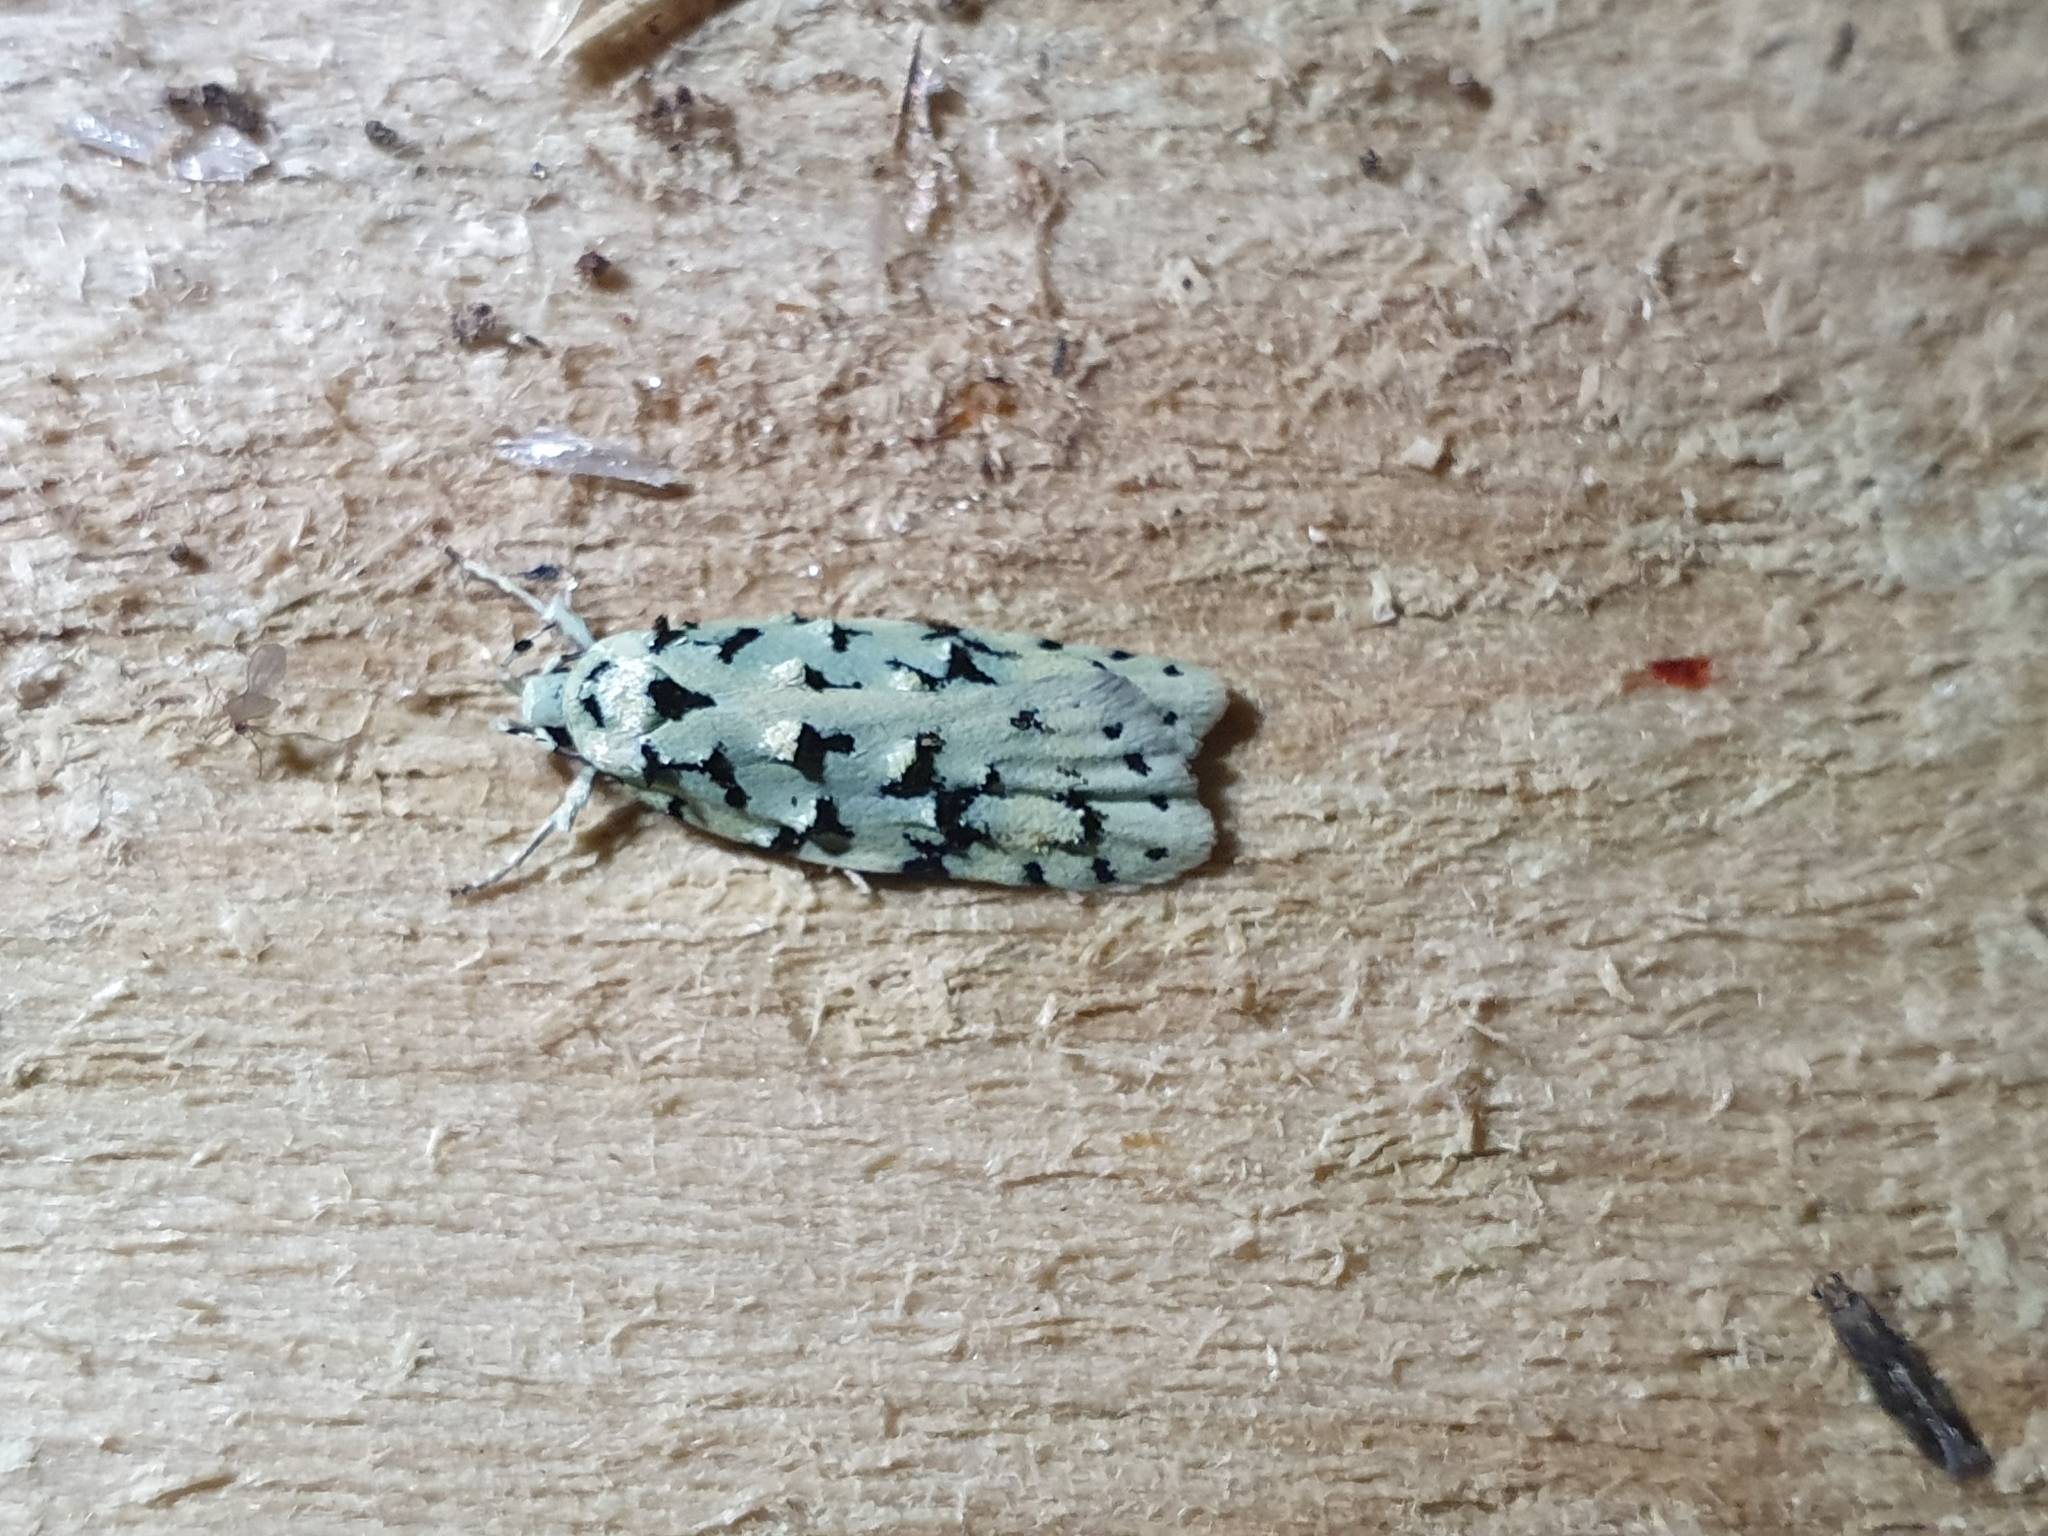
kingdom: Animalia
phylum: Arthropoda
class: Insecta
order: Lepidoptera
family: Oecophoridae
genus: Izatha
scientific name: Izatha huttoni
